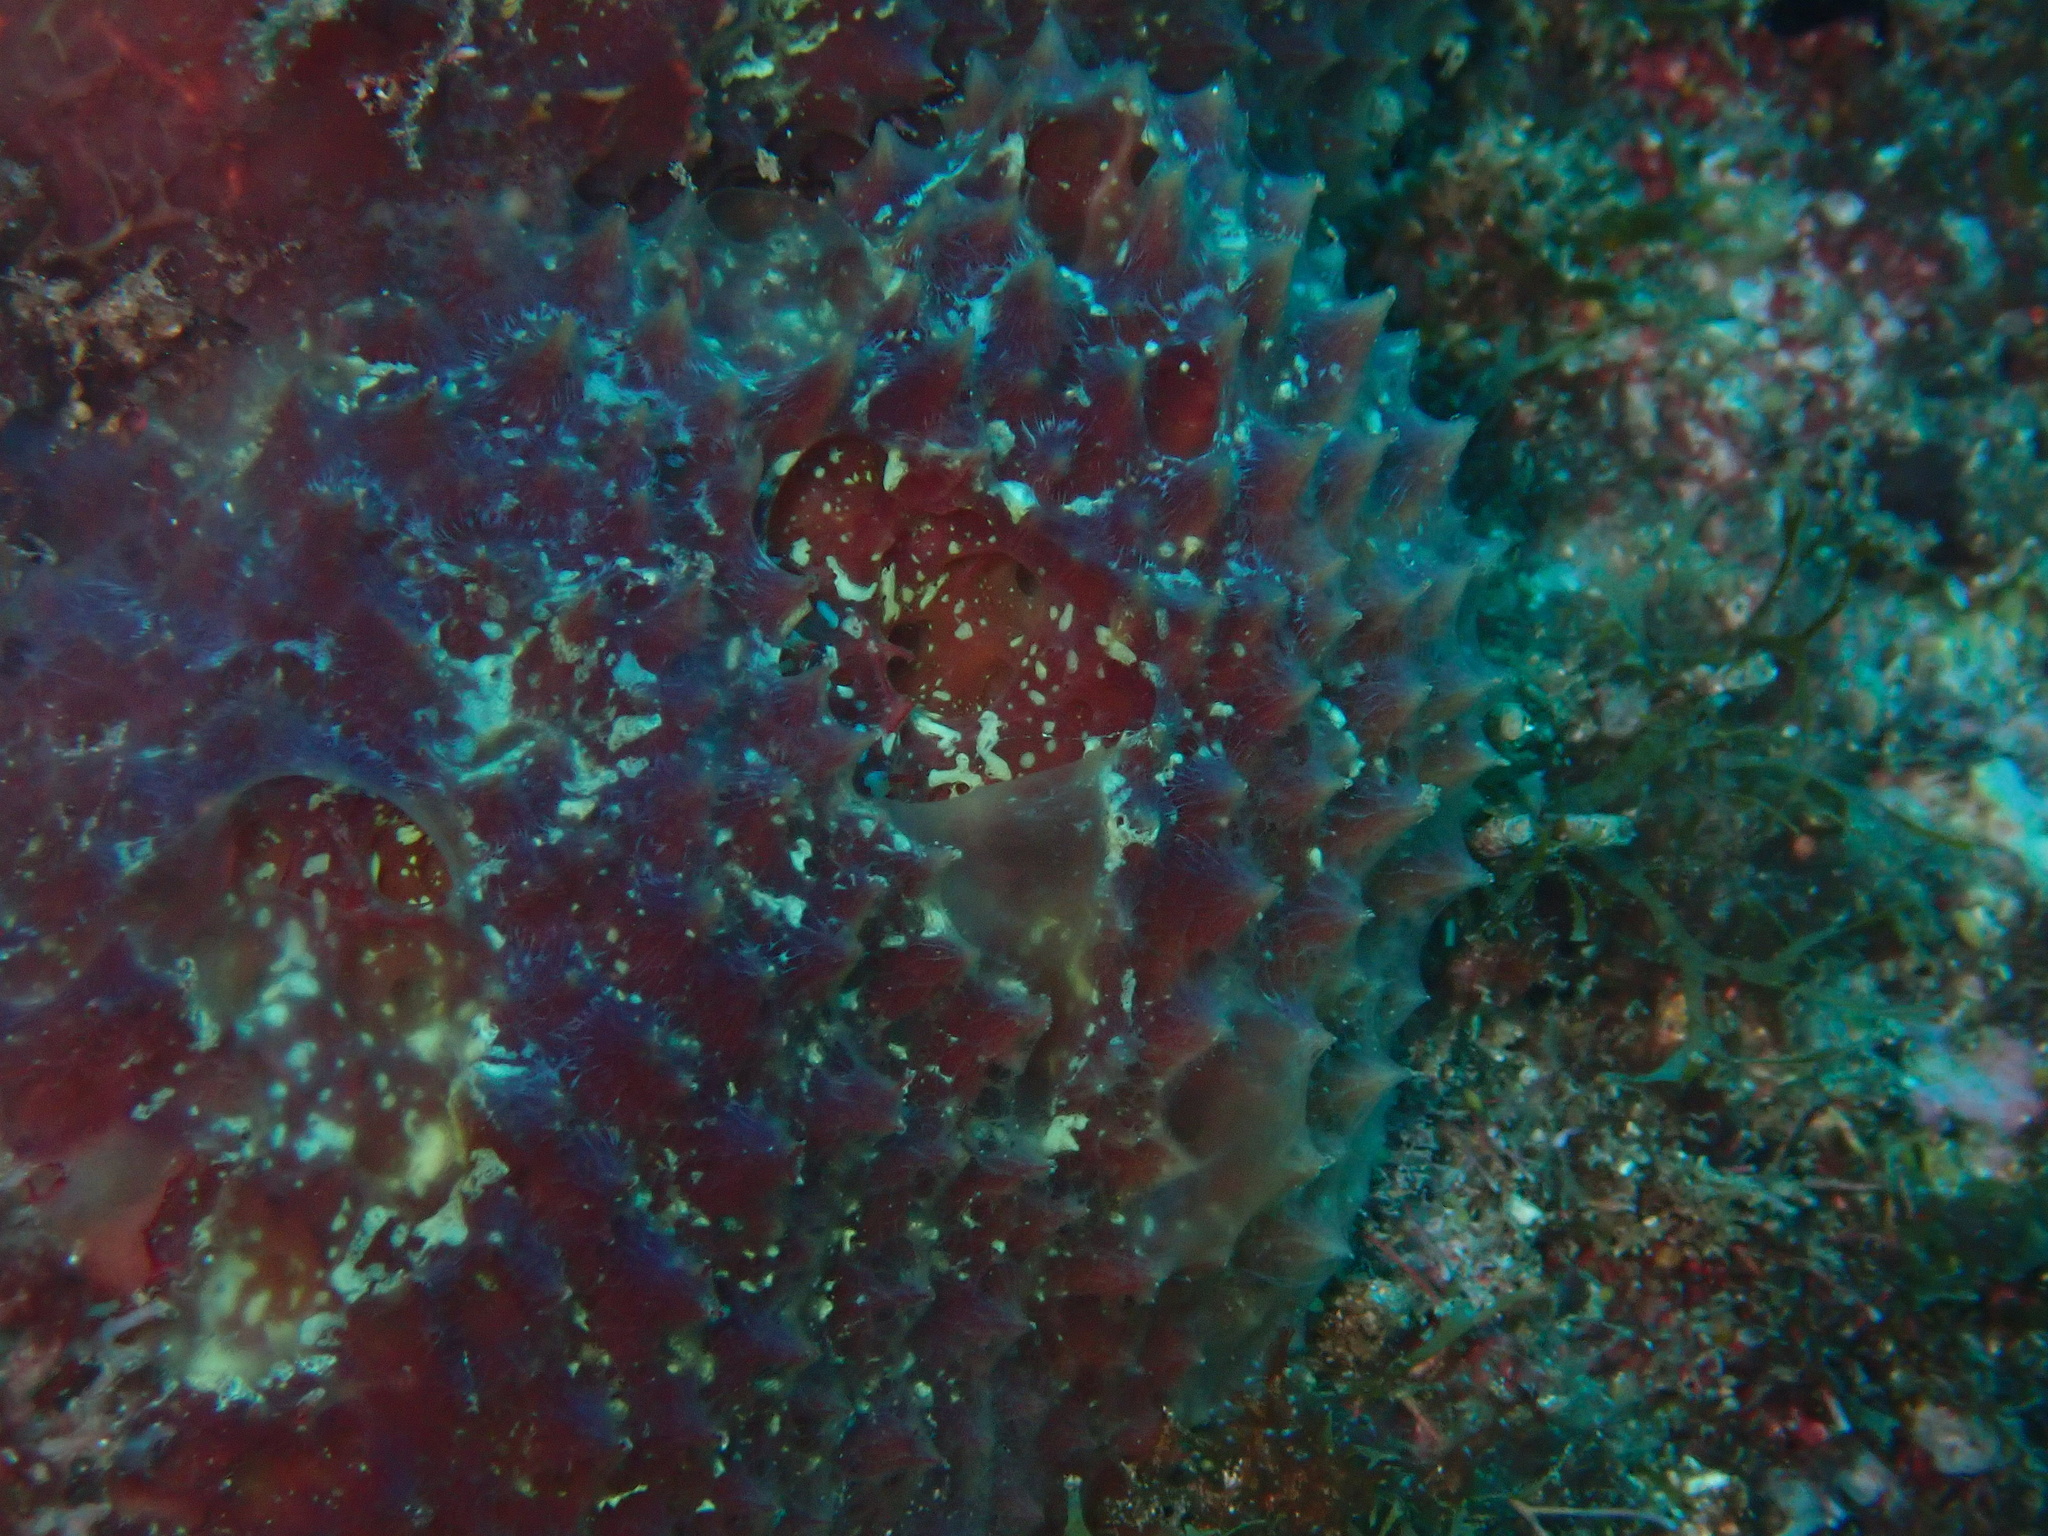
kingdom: Animalia
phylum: Porifera
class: Demospongiae
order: Poecilosclerida
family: Mycalidae
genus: Mycale
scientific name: Mycale laxissima
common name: Strawberry vase sponge
